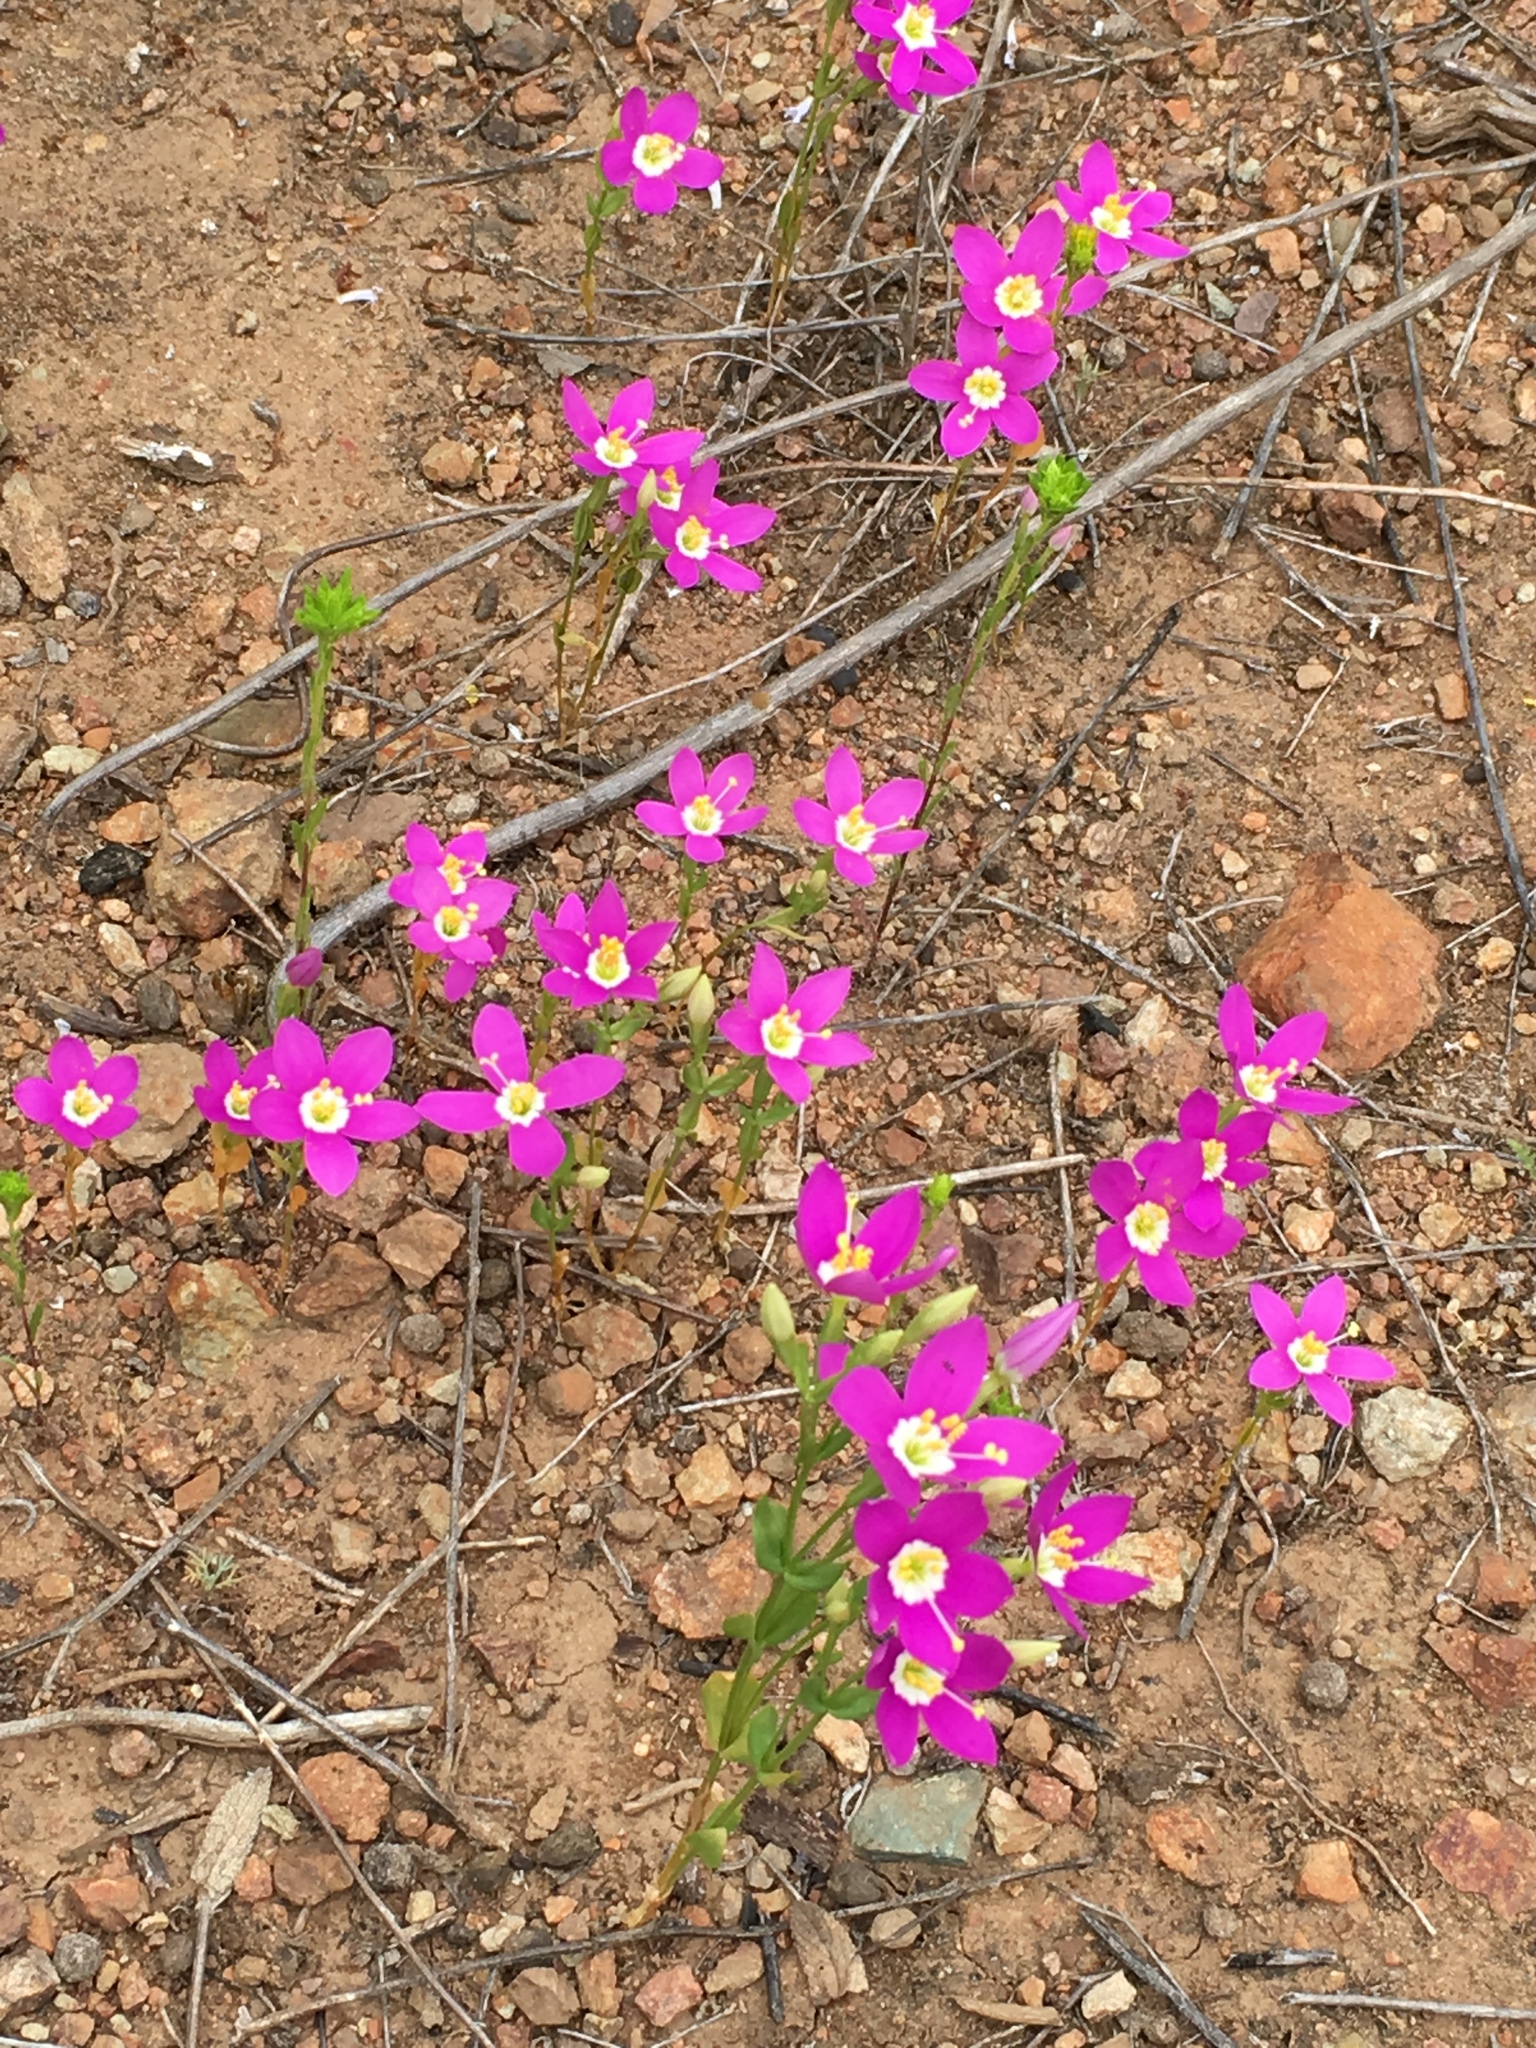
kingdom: Plantae
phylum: Tracheophyta
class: Magnoliopsida
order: Gentianales
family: Gentianaceae
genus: Zeltnera
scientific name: Zeltnera venusta
